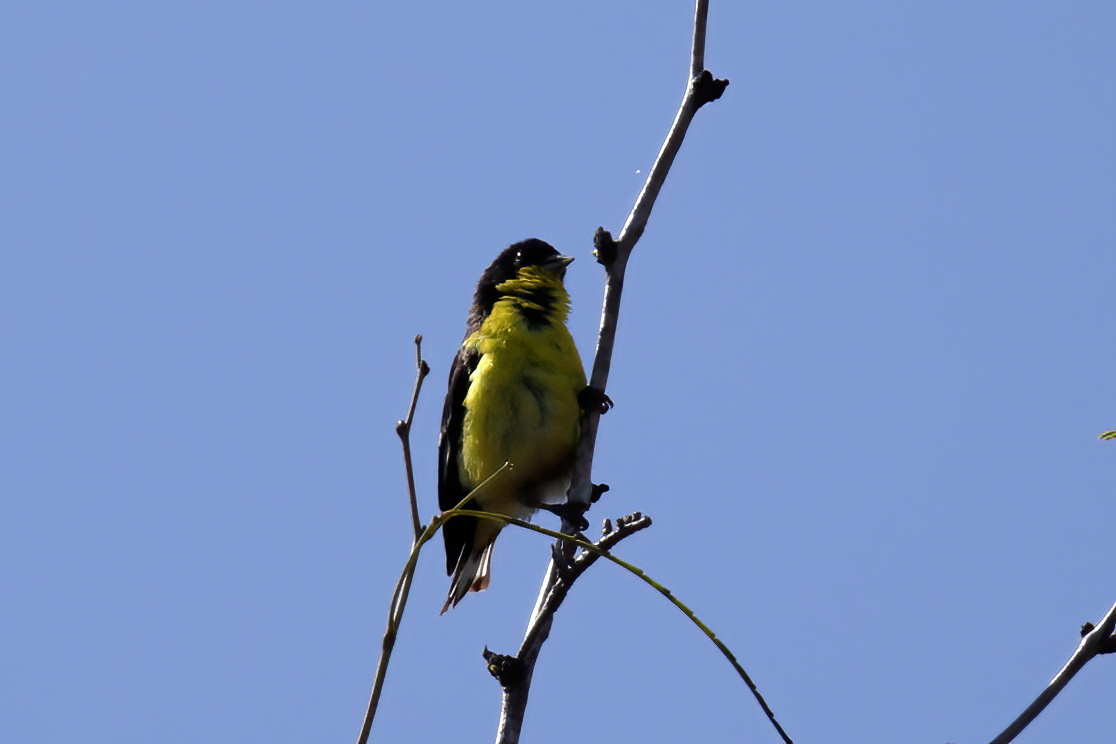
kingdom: Animalia
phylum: Chordata
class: Aves
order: Passeriformes
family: Fringillidae
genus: Spinus
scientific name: Spinus psaltria
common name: Lesser goldfinch
